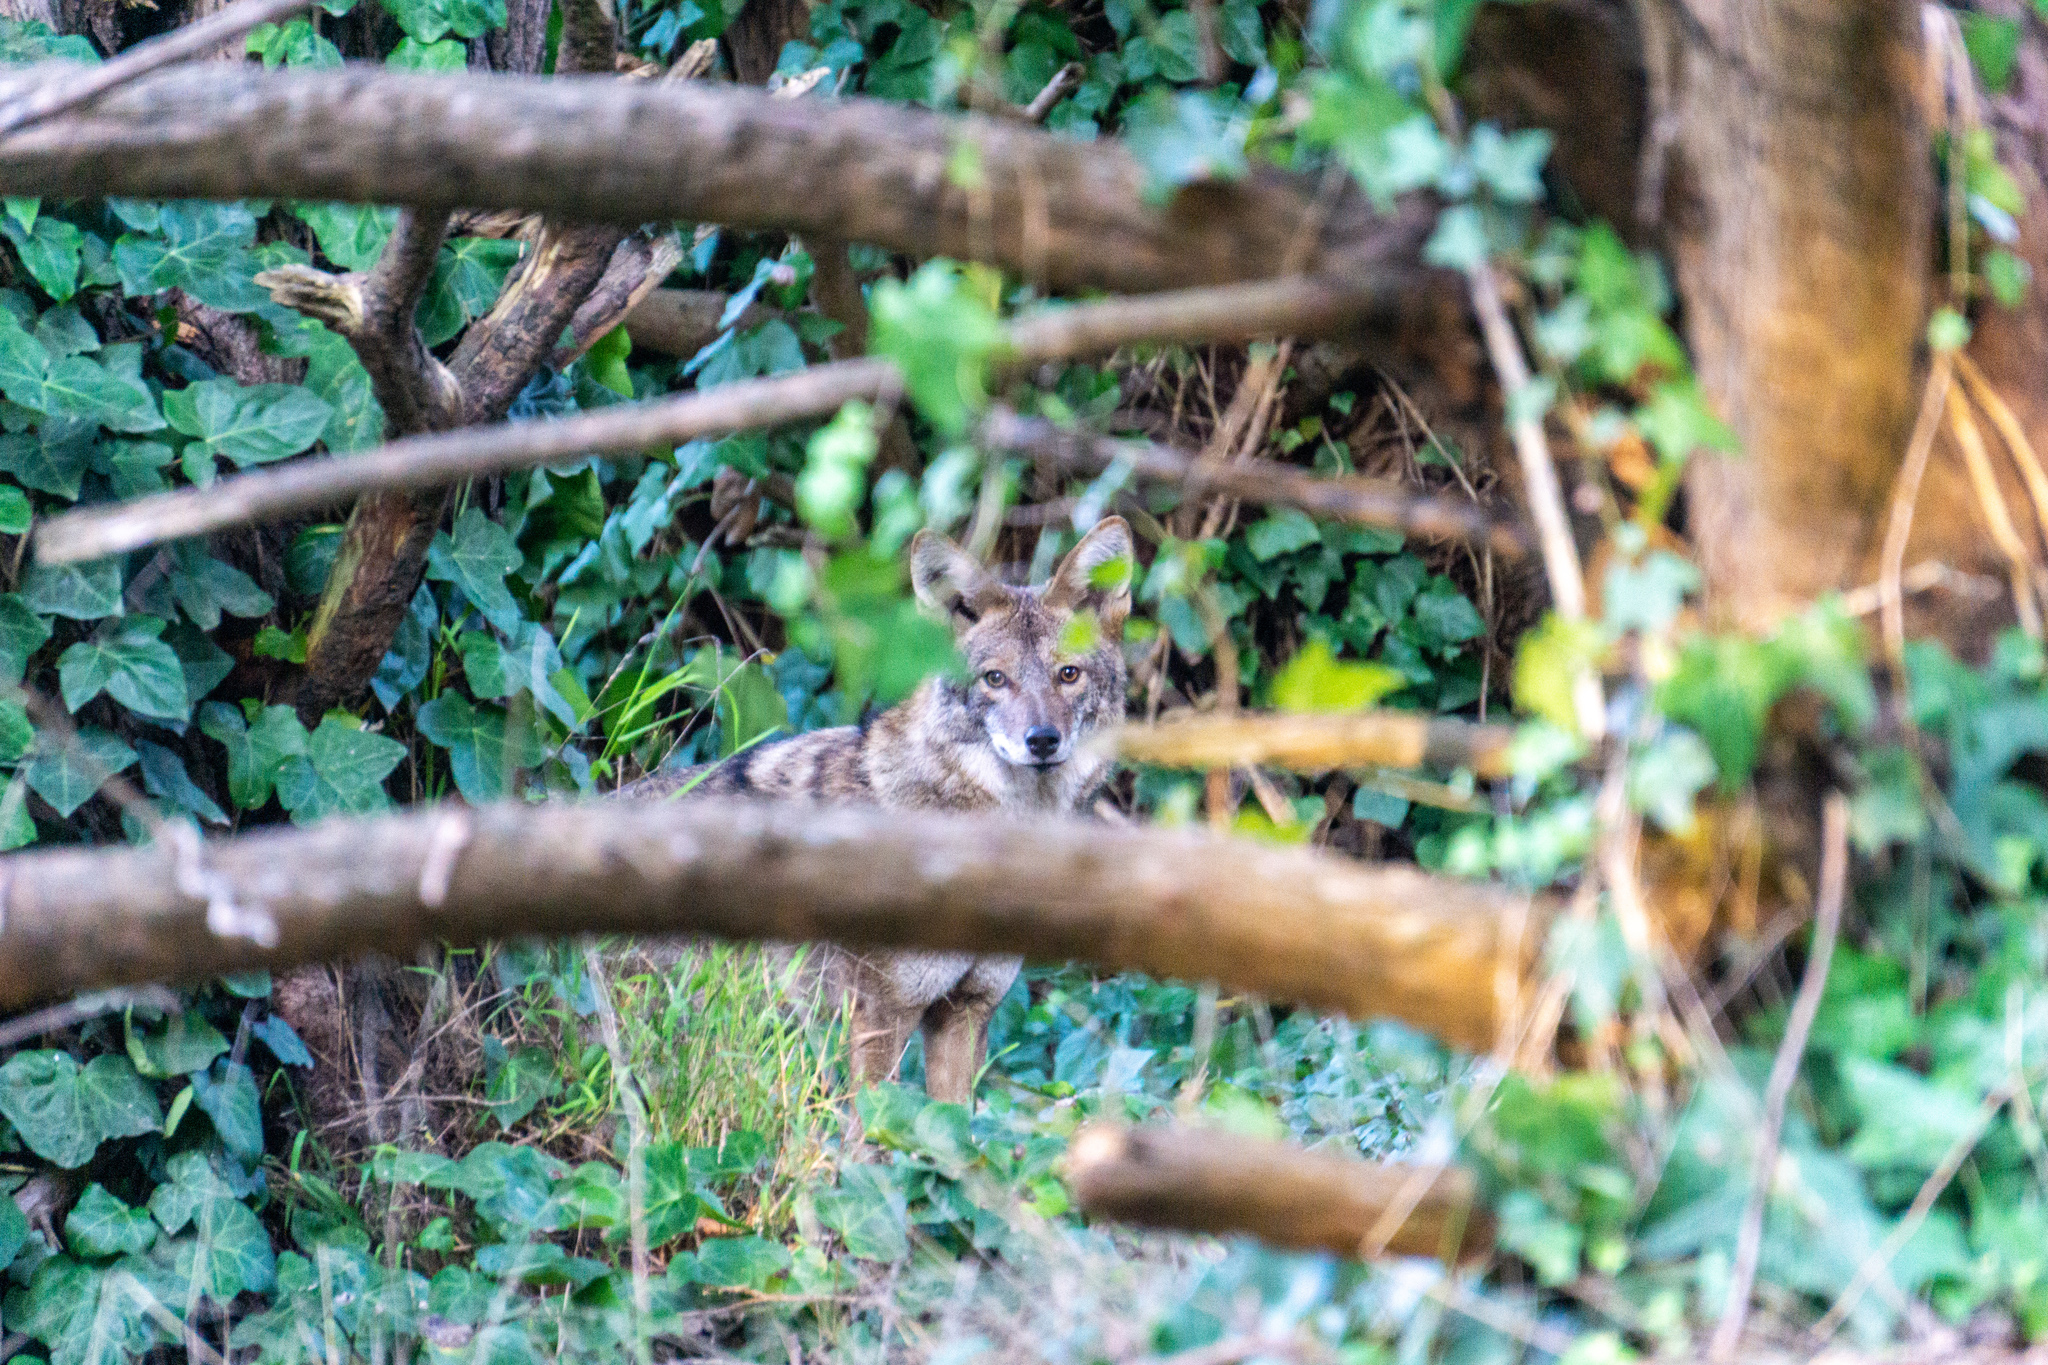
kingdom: Animalia
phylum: Chordata
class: Mammalia
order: Carnivora
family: Canidae
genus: Canis
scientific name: Canis latrans
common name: Coyote
